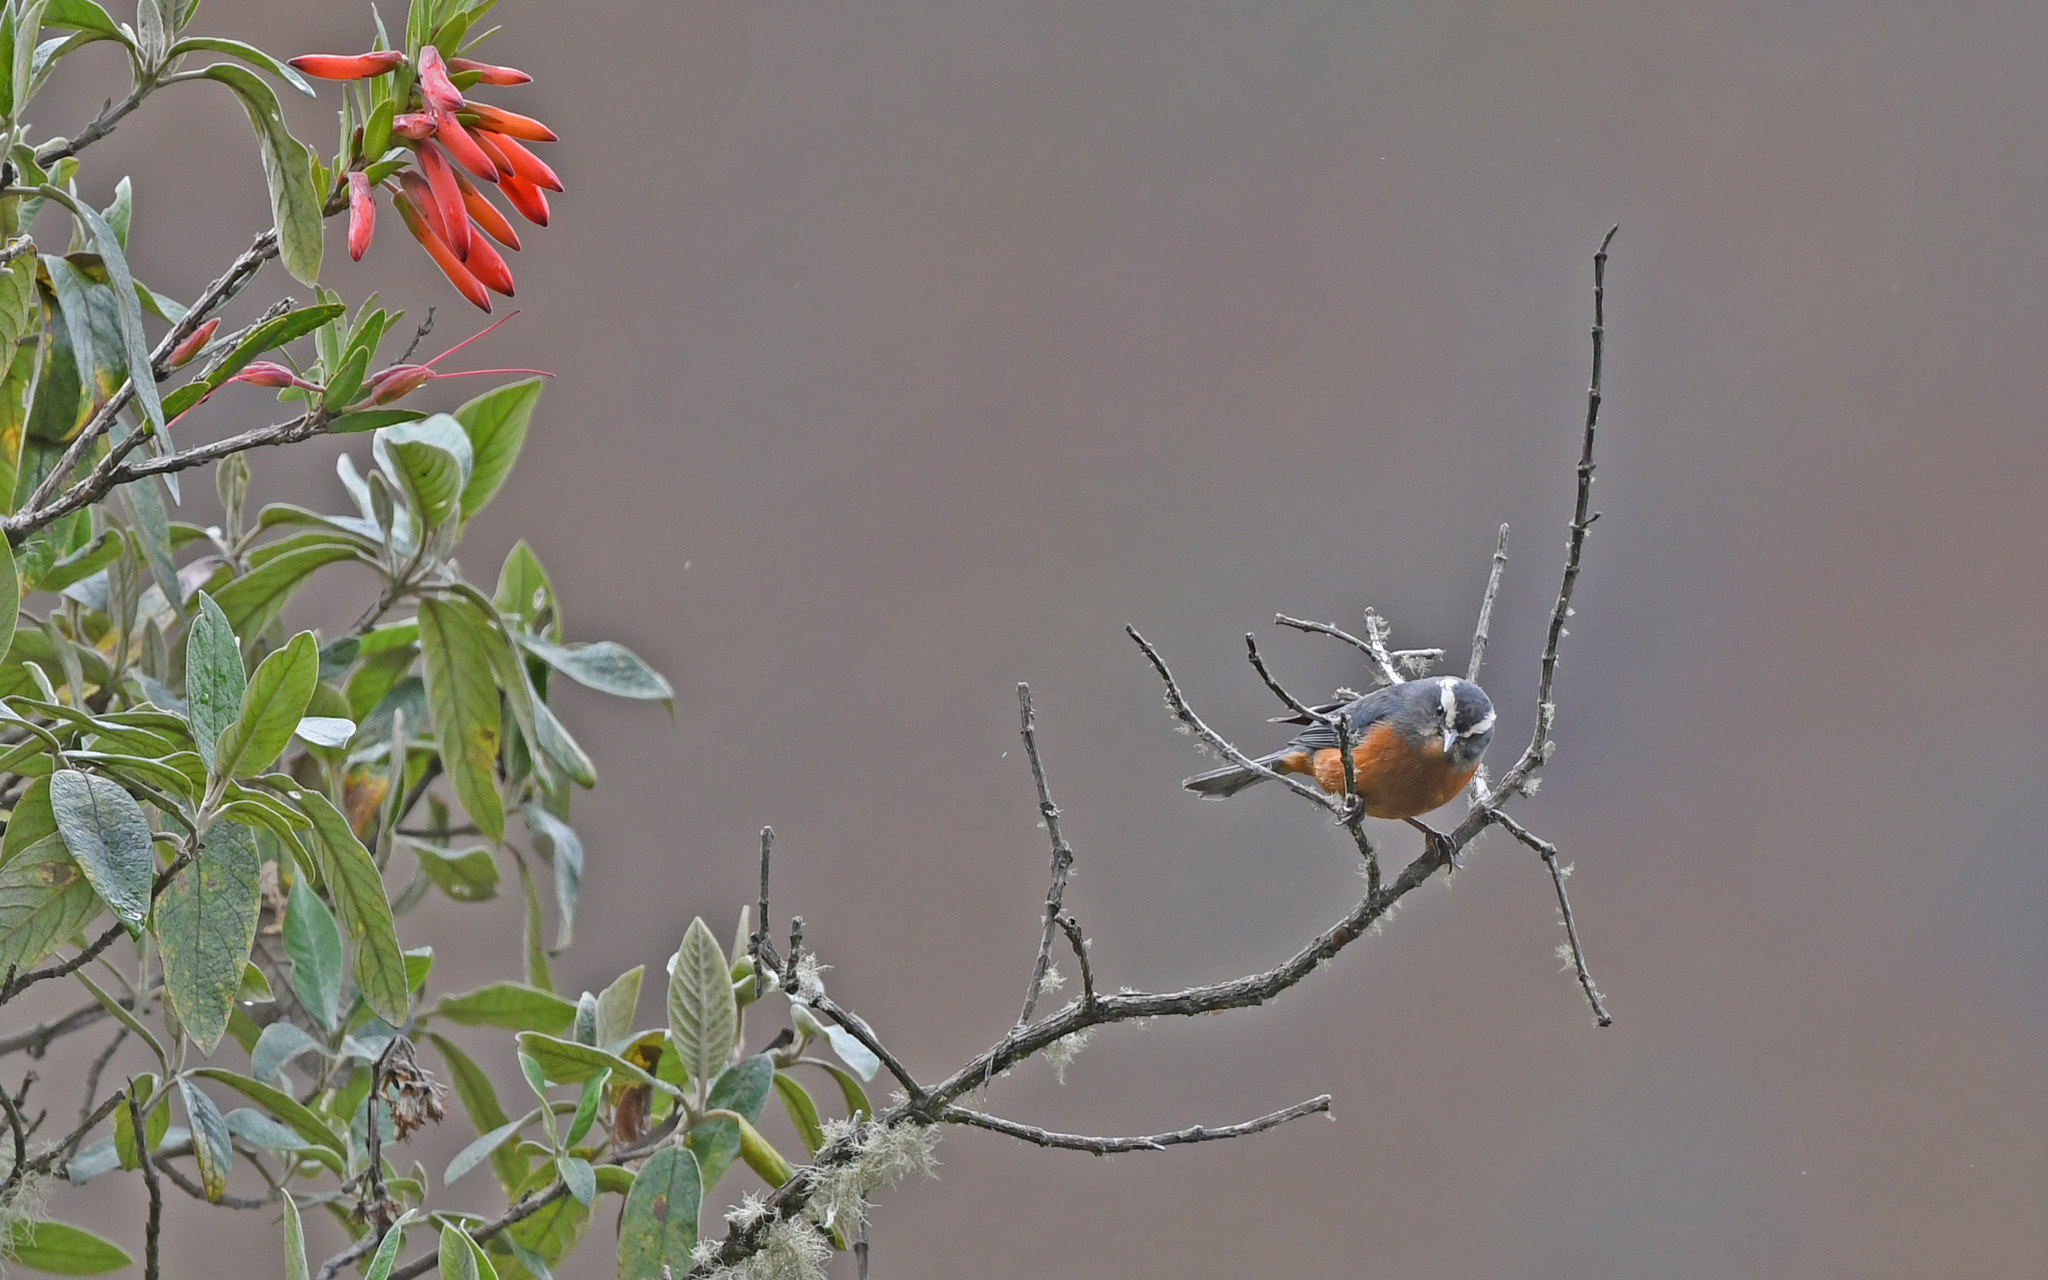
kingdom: Animalia
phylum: Chordata
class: Aves
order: Passeriformes
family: Thraupidae
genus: Conirostrum
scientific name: Conirostrum ferrugineiventre
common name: White-browed conebill
